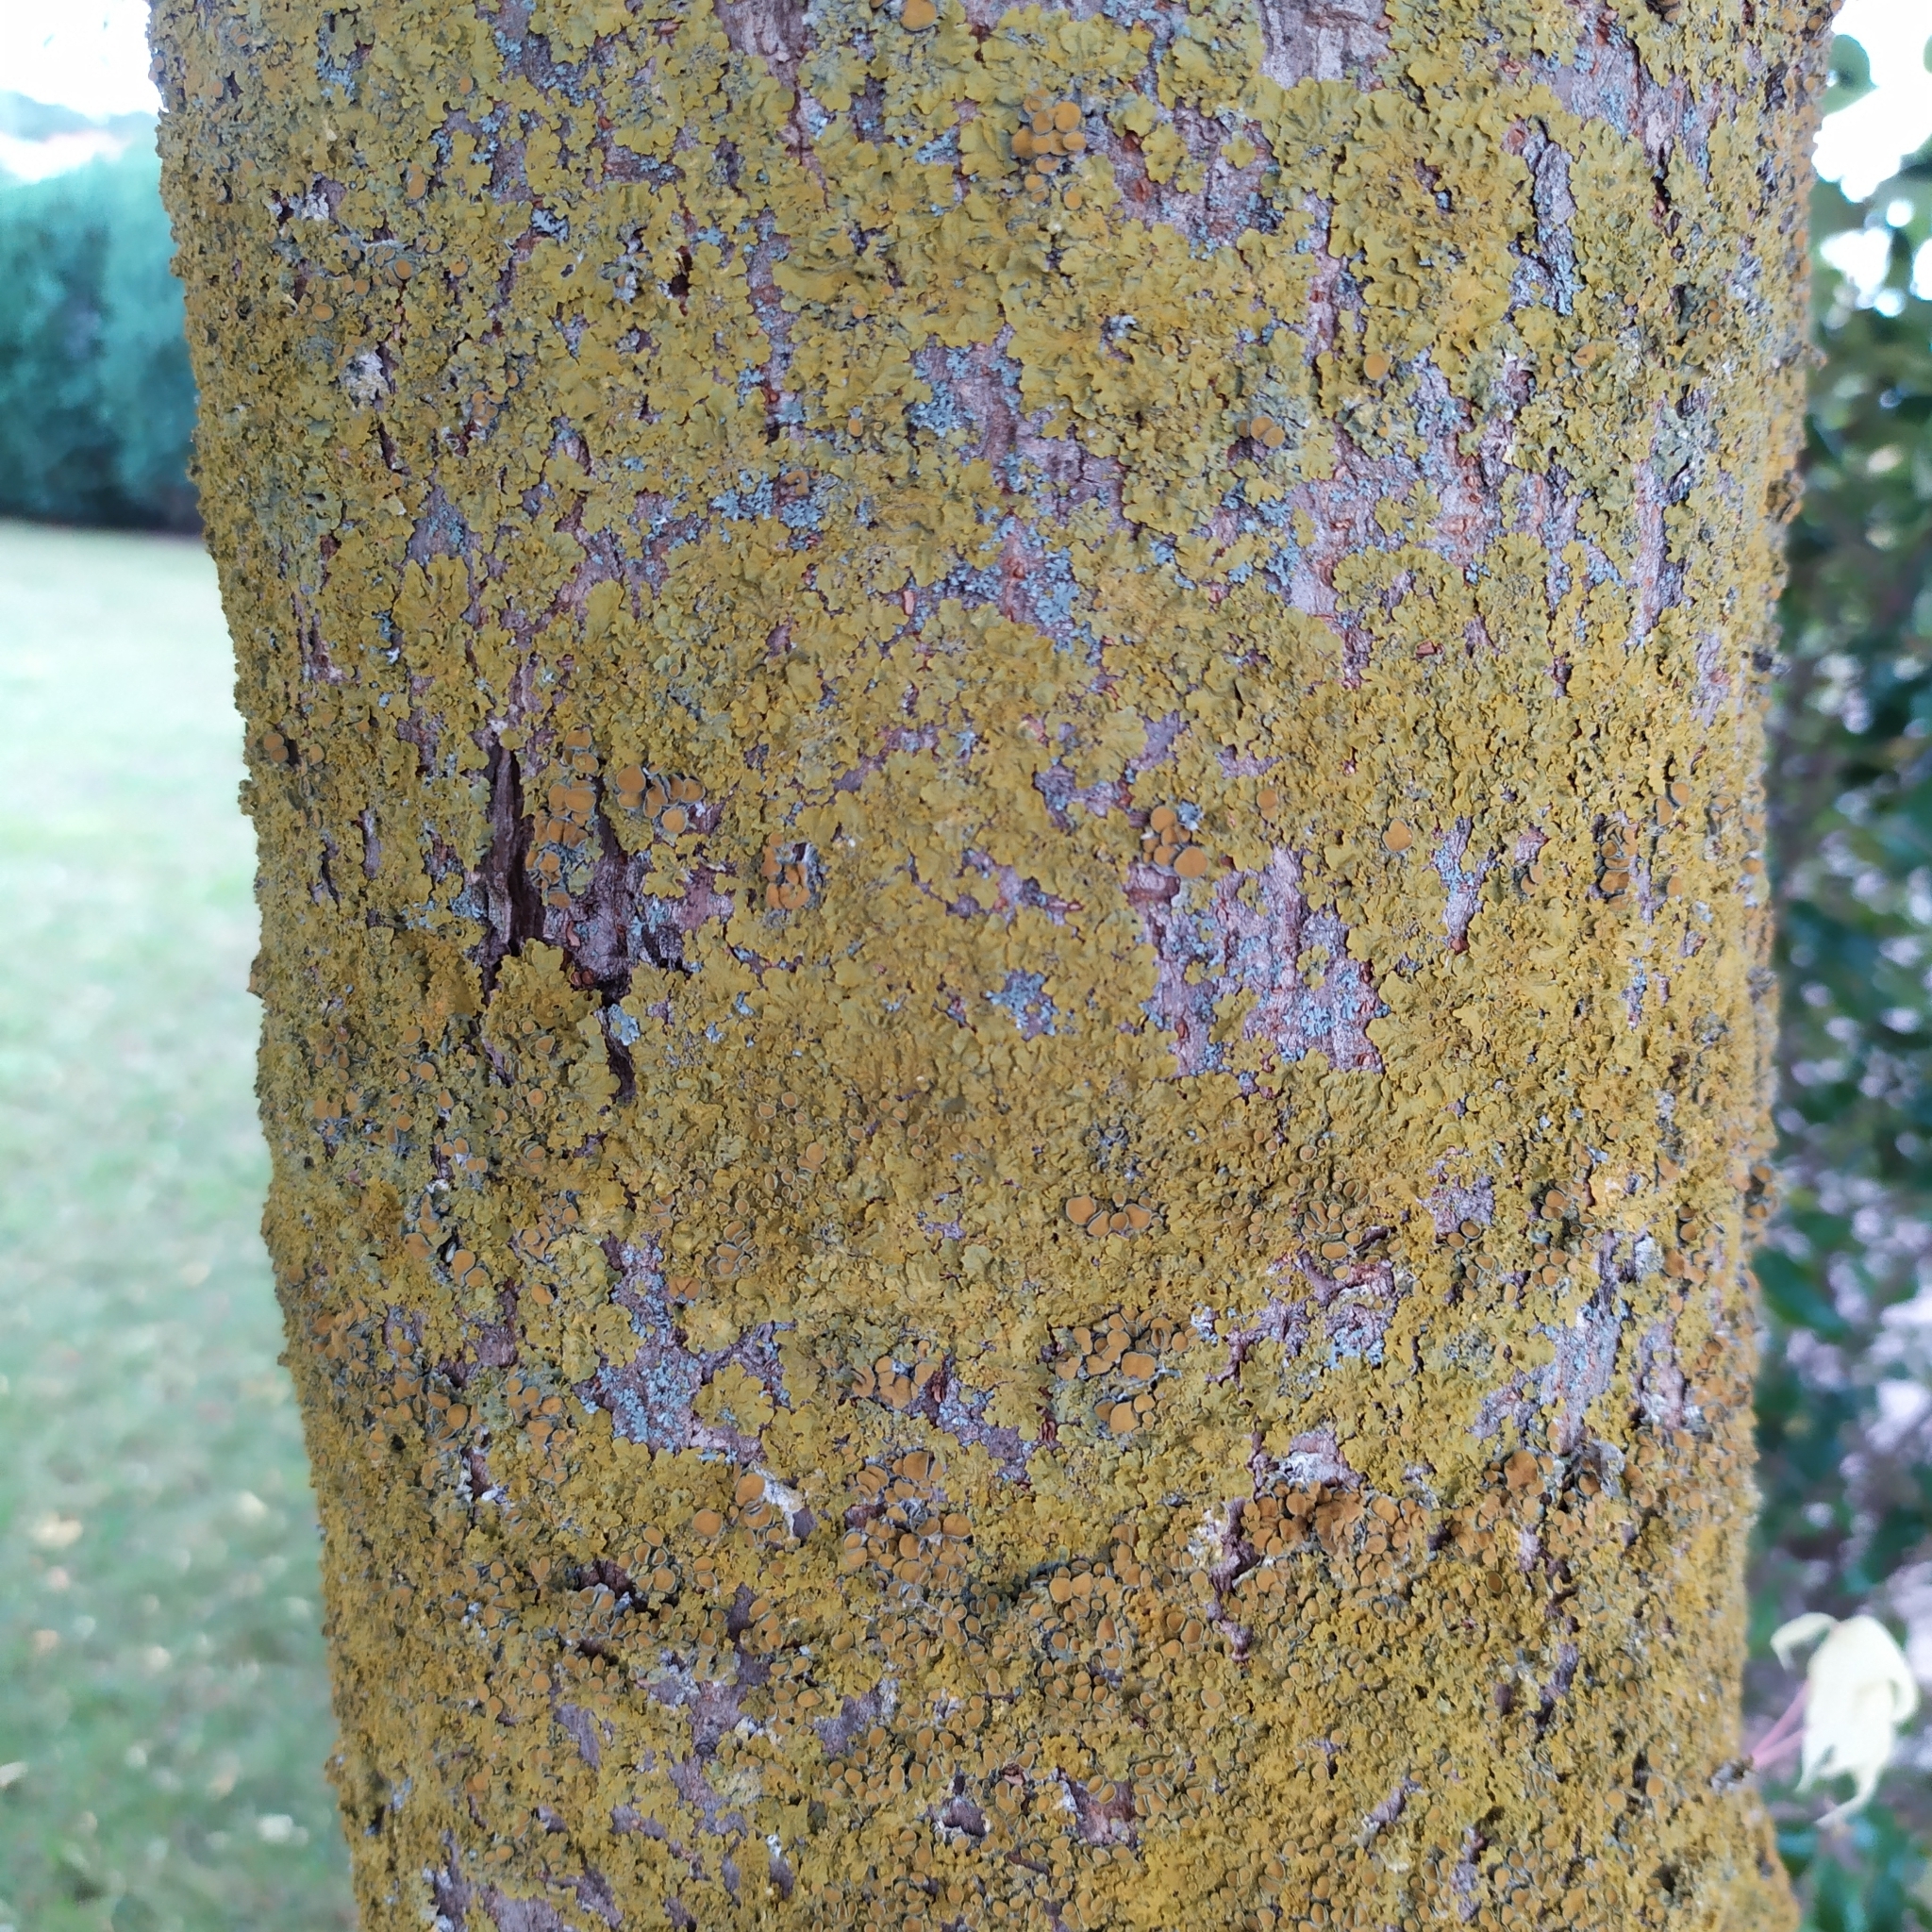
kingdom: Fungi
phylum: Ascomycota
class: Lecanoromycetes
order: Teloschistales
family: Teloschistaceae
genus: Xanthoria
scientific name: Xanthoria parietina
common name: Common orange lichen
